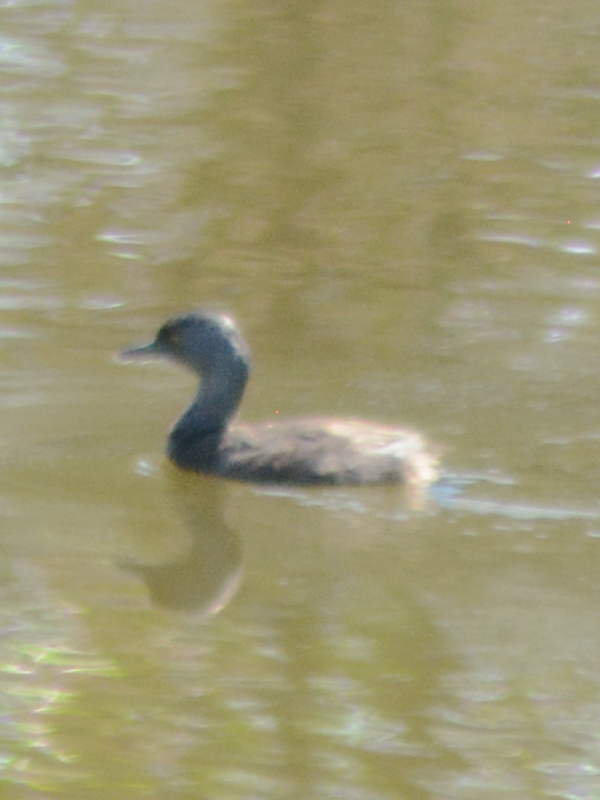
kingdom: Animalia
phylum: Chordata
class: Aves
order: Podicipediformes
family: Podicipedidae
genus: Tachybaptus
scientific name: Tachybaptus dominicus
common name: Least grebe
